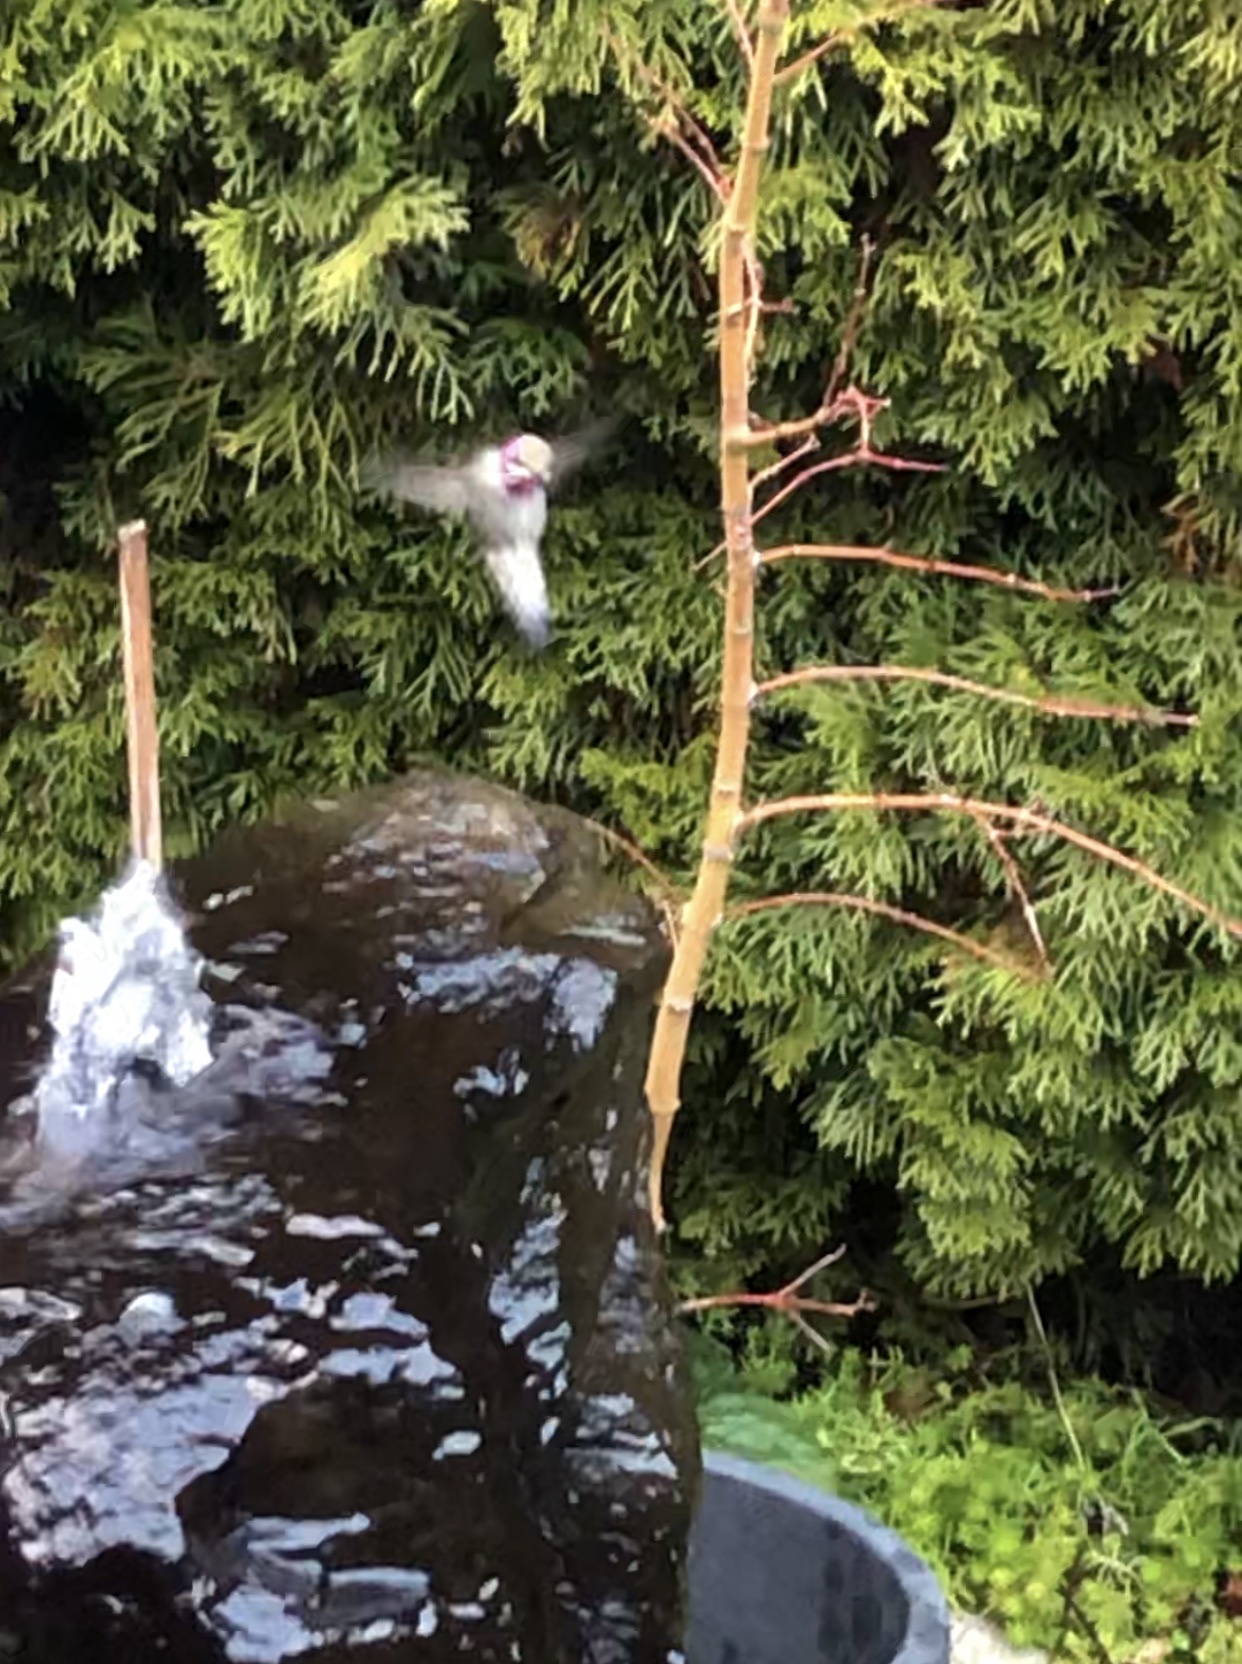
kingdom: Animalia
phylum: Chordata
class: Aves
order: Apodiformes
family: Trochilidae
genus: Calypte
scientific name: Calypte anna
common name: Anna's hummingbird
